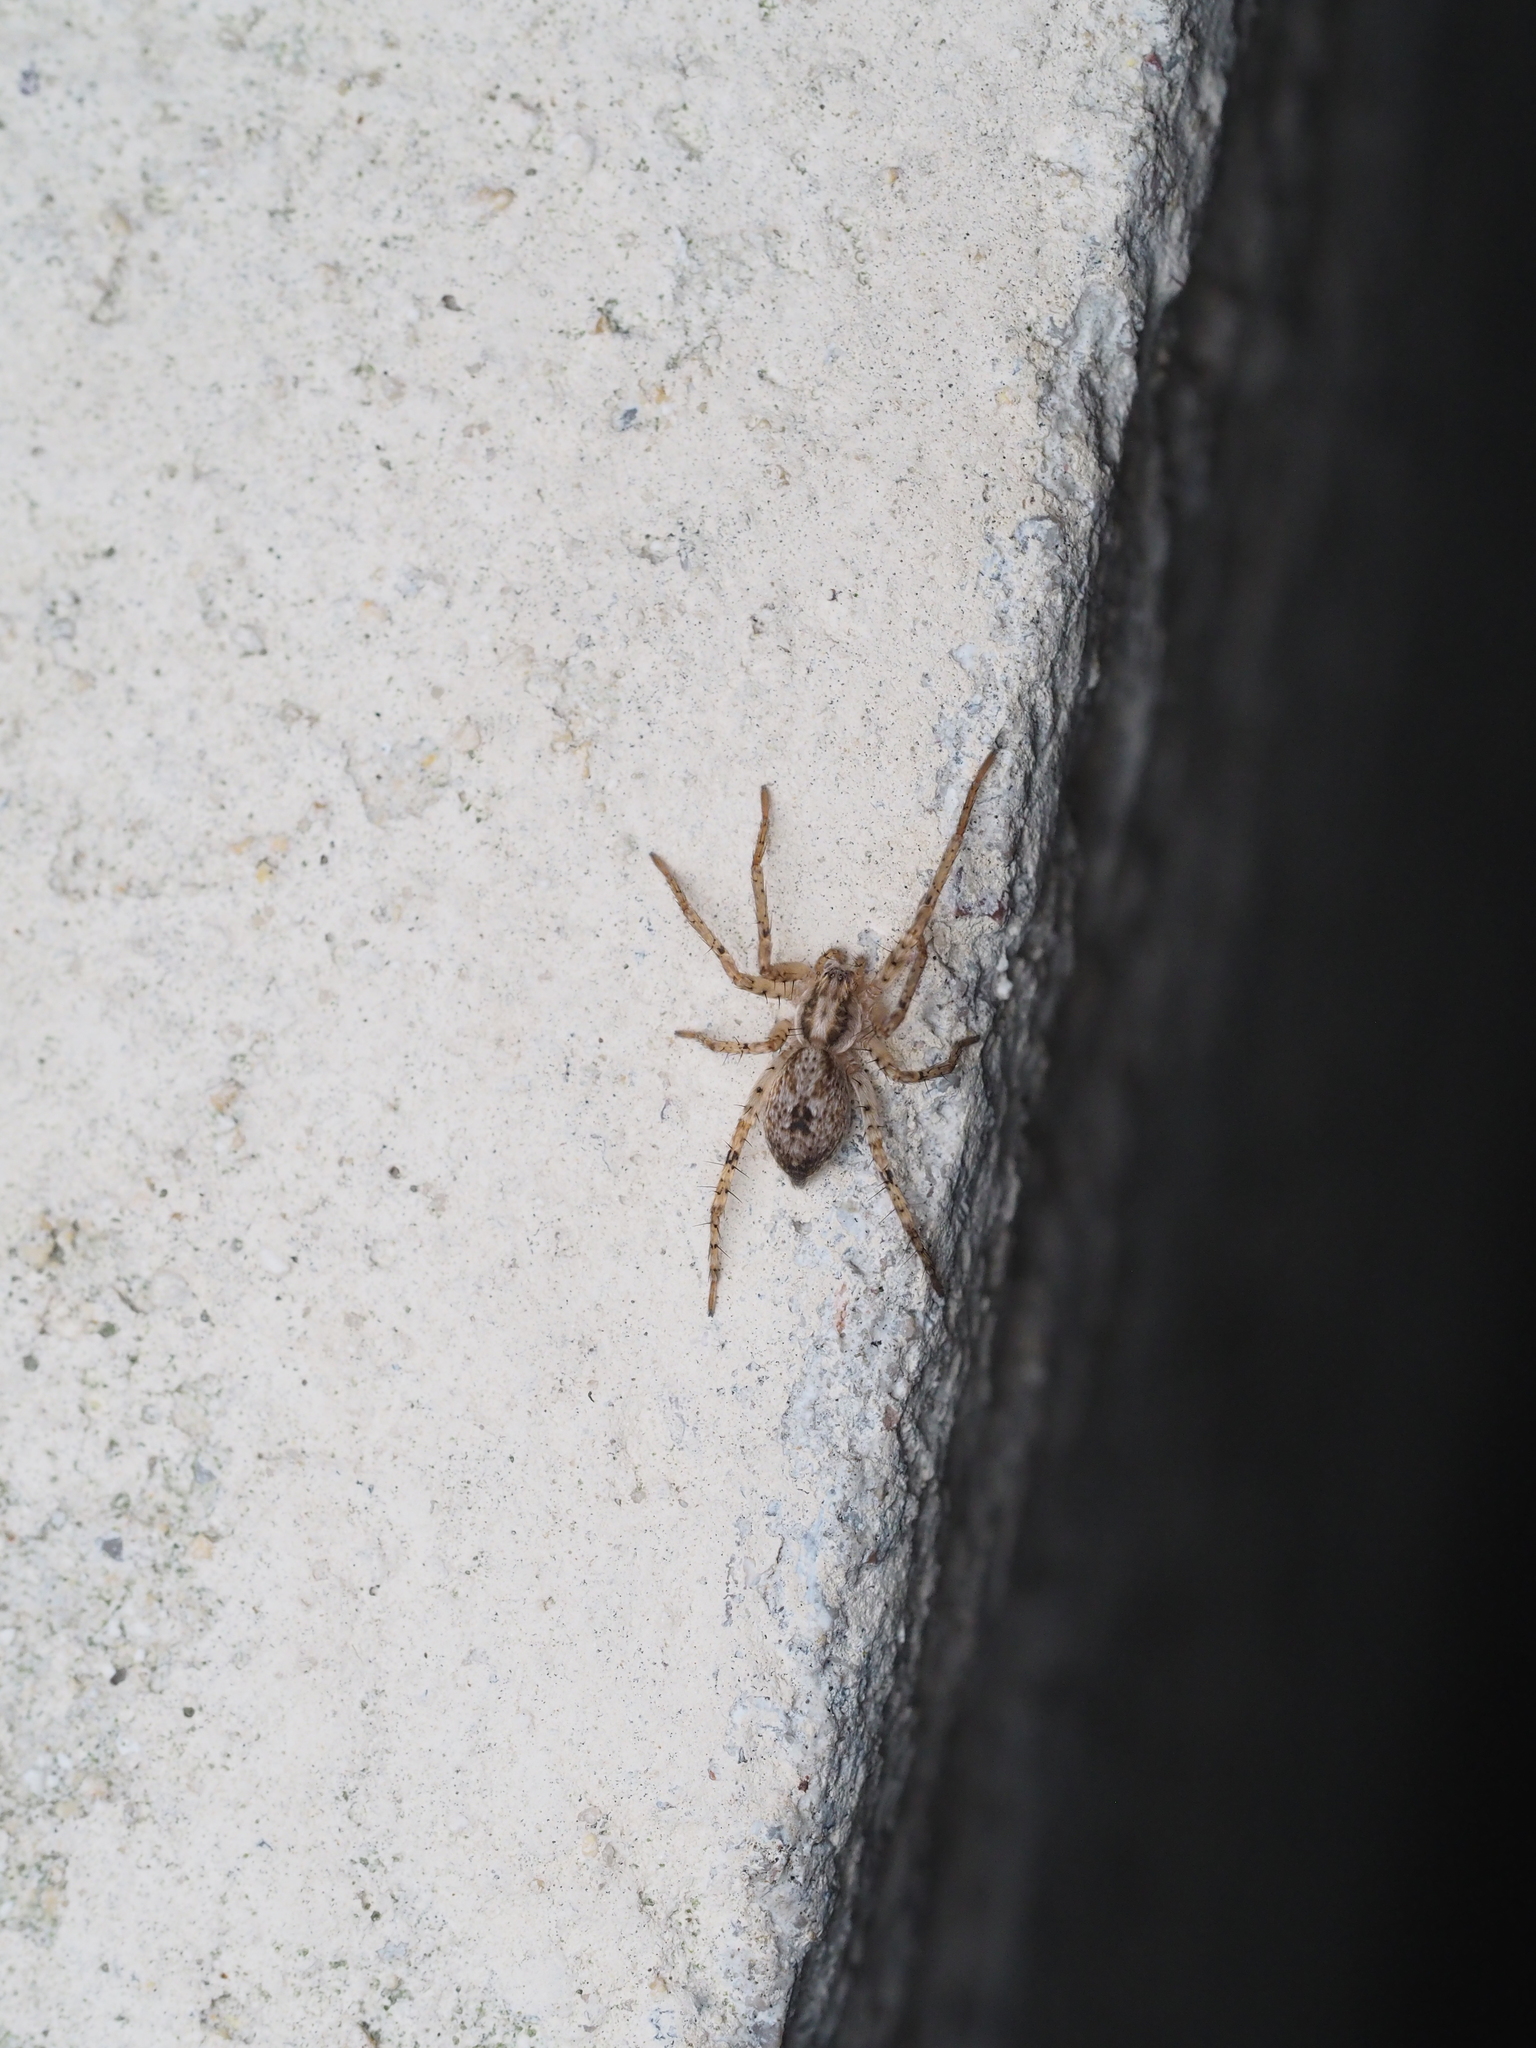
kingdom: Animalia
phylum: Arthropoda
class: Arachnida
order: Araneae
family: Anyphaenidae
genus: Anyphaena
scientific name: Anyphaena accentuata
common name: Buzzing spider
